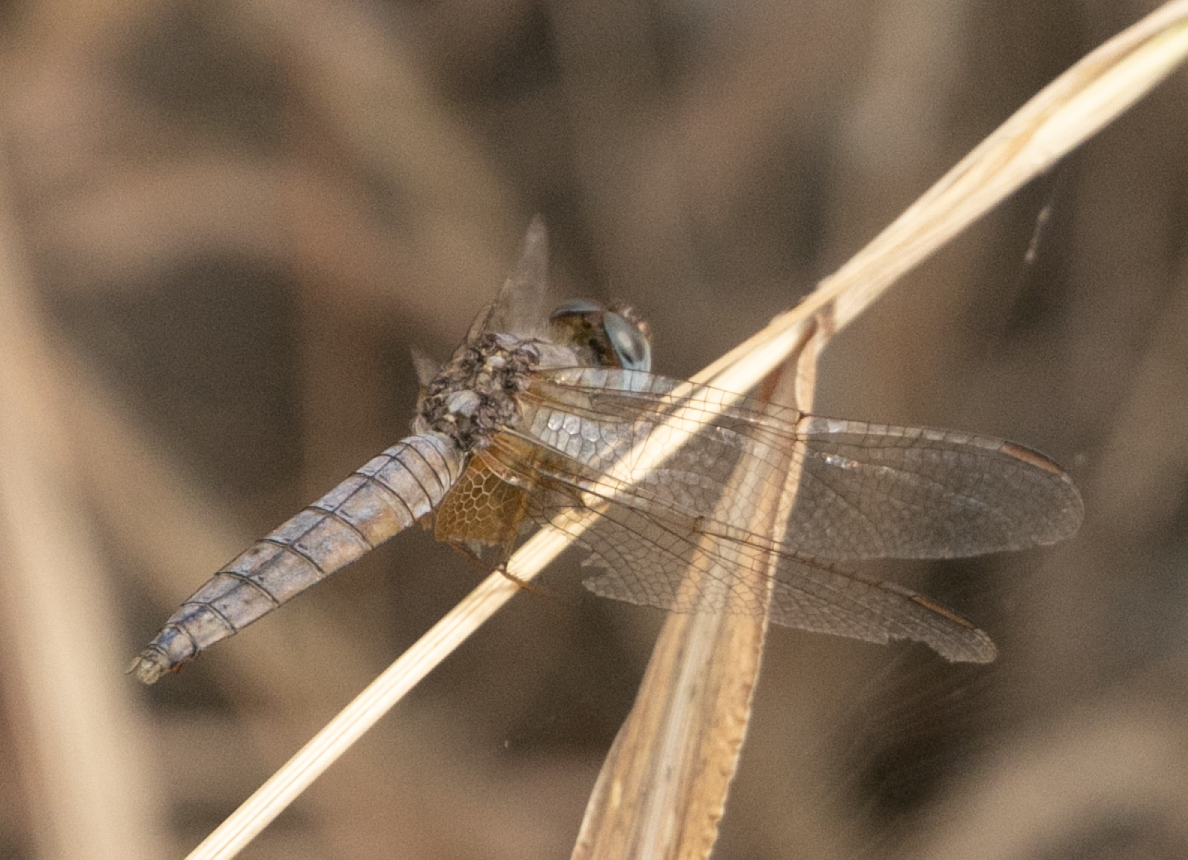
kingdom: Animalia
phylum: Arthropoda
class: Insecta
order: Odonata
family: Libellulidae
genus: Crocothemis
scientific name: Crocothemis erythraea
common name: Scarlet dragonfly
